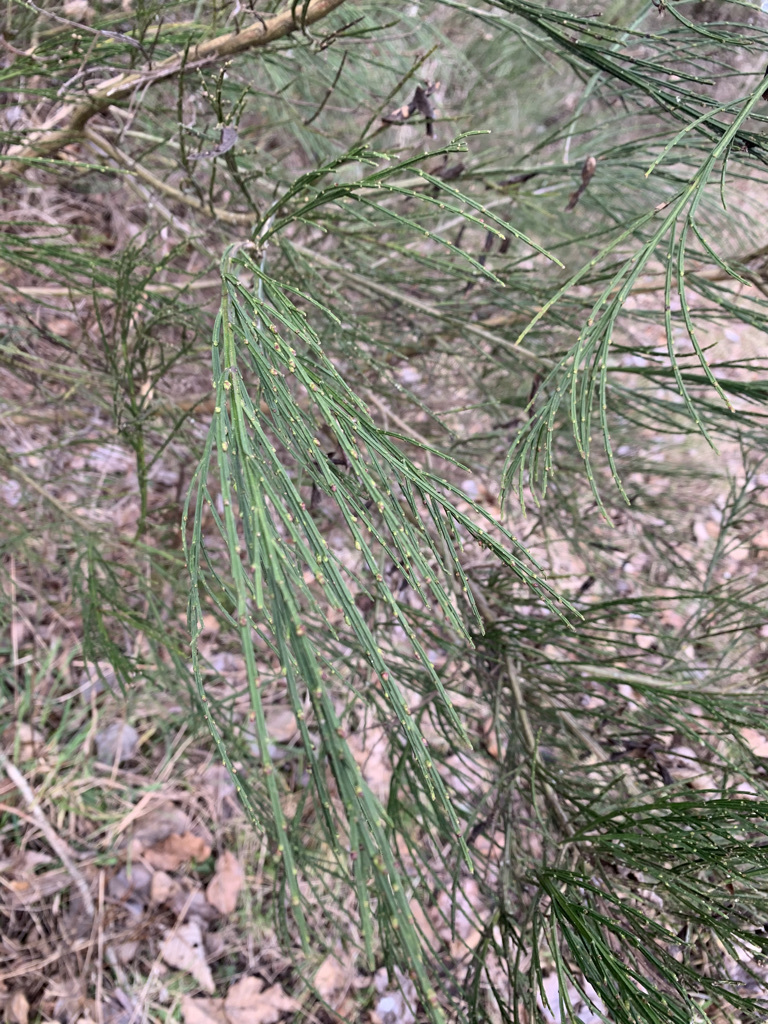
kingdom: Plantae
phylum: Tracheophyta
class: Magnoliopsida
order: Fabales
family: Fabaceae
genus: Cytisus
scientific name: Cytisus scoparius
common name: Scotch broom
